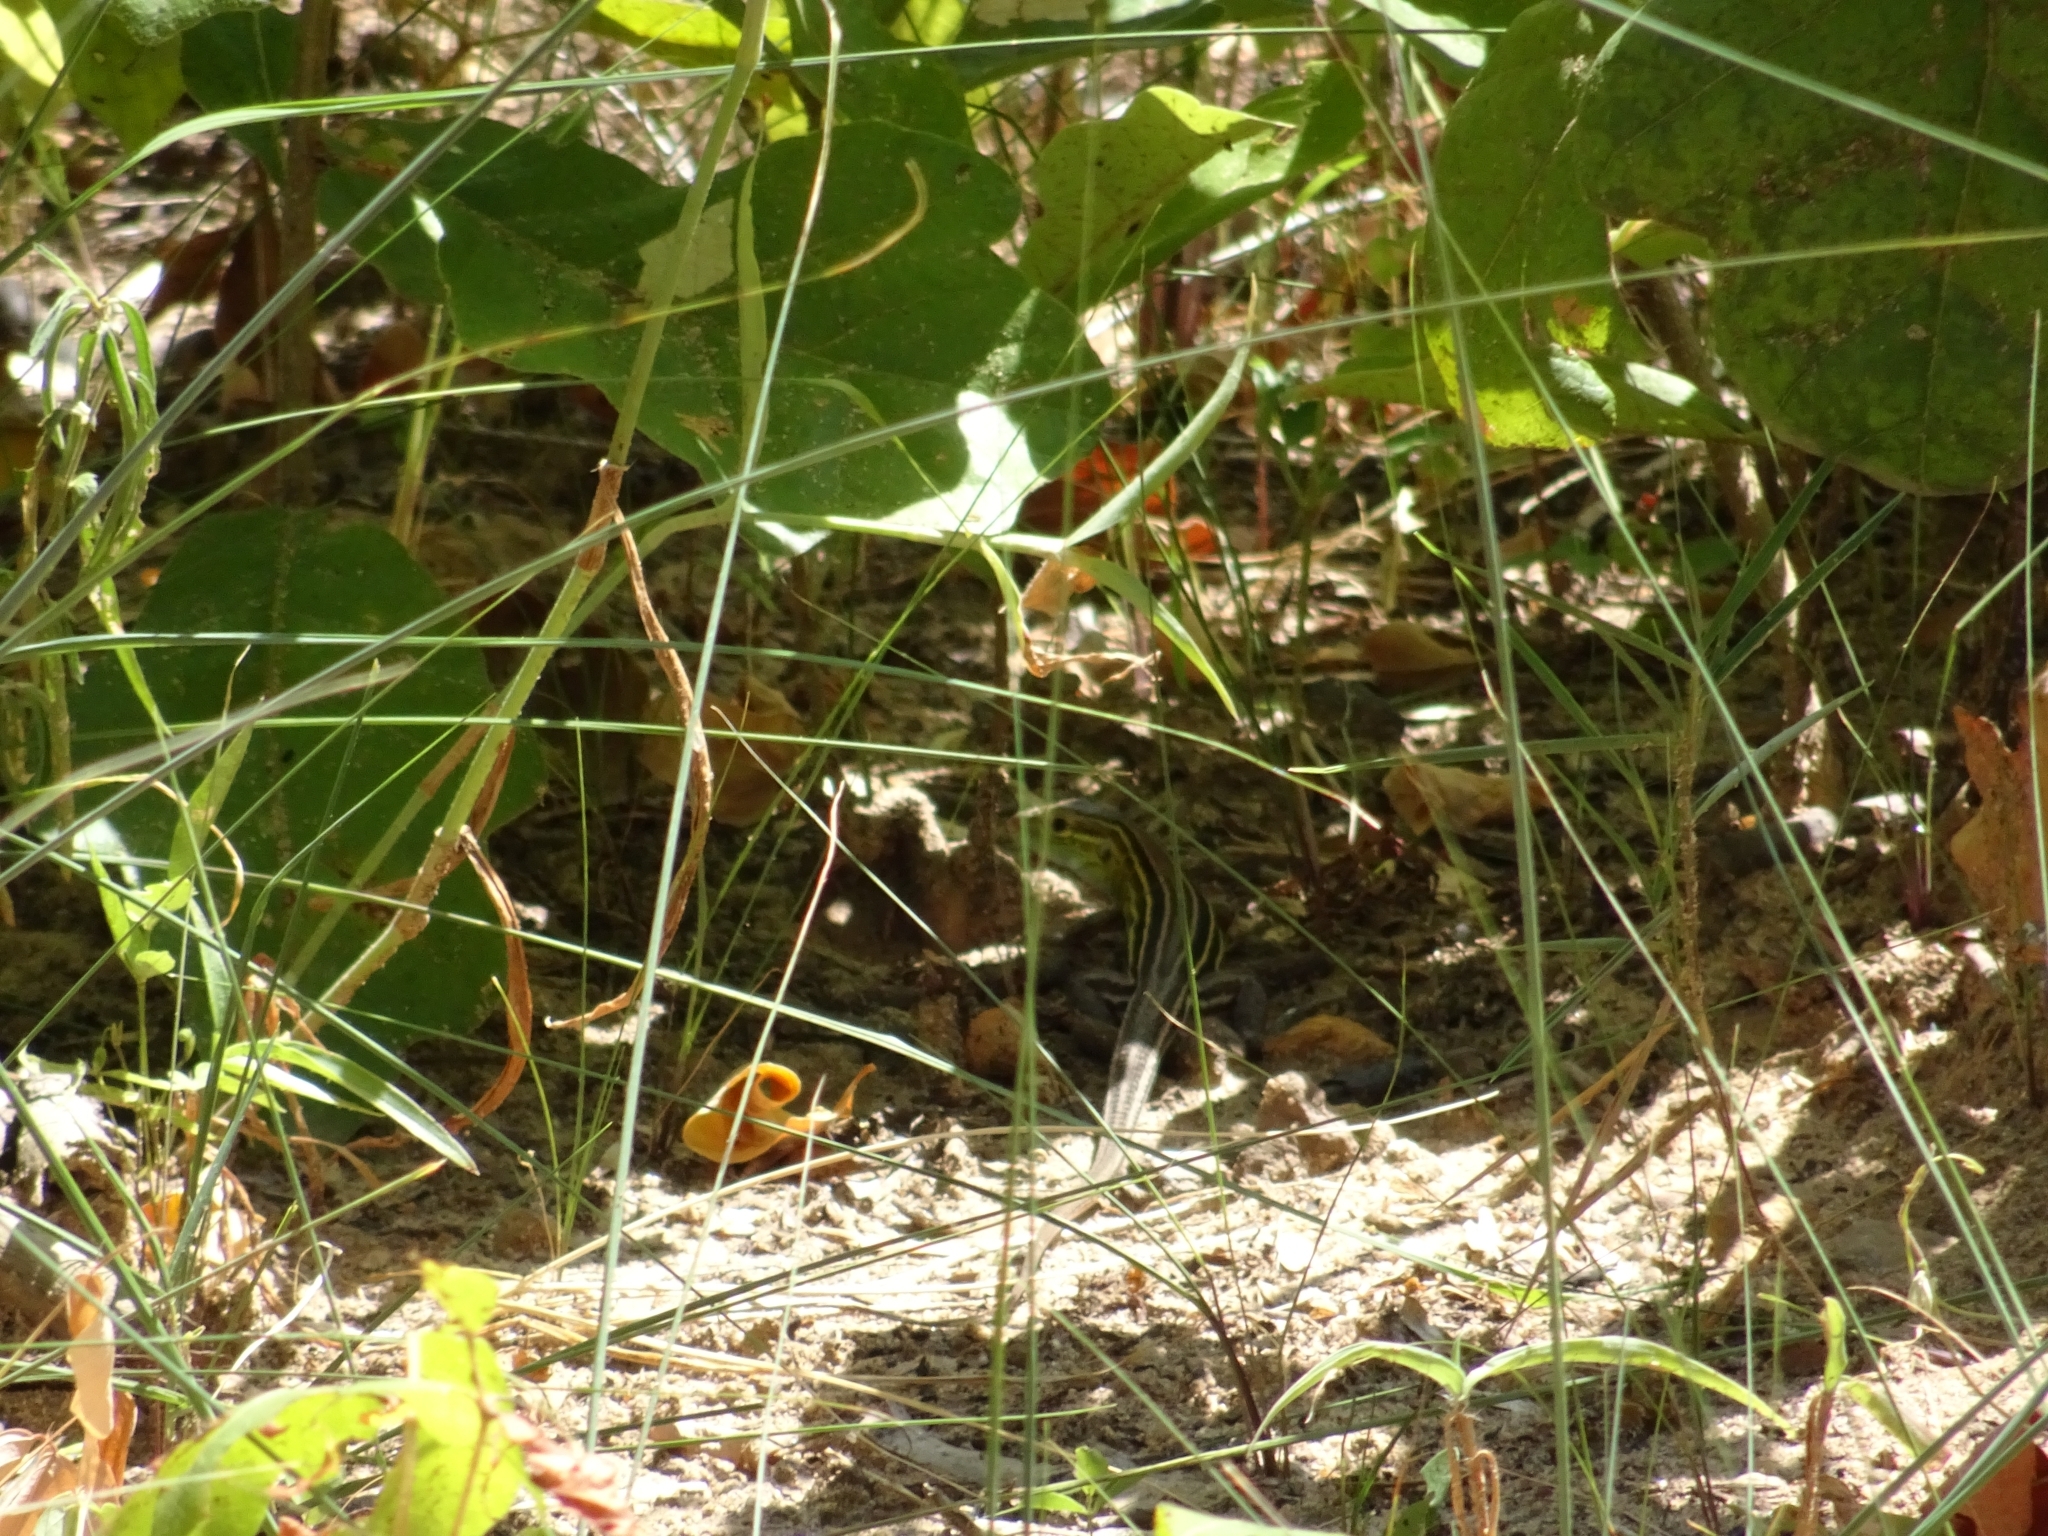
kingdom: Animalia
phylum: Chordata
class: Squamata
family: Teiidae
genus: Aspidoscelis
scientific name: Aspidoscelis sexlineatus
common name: Six-lined racerunner
